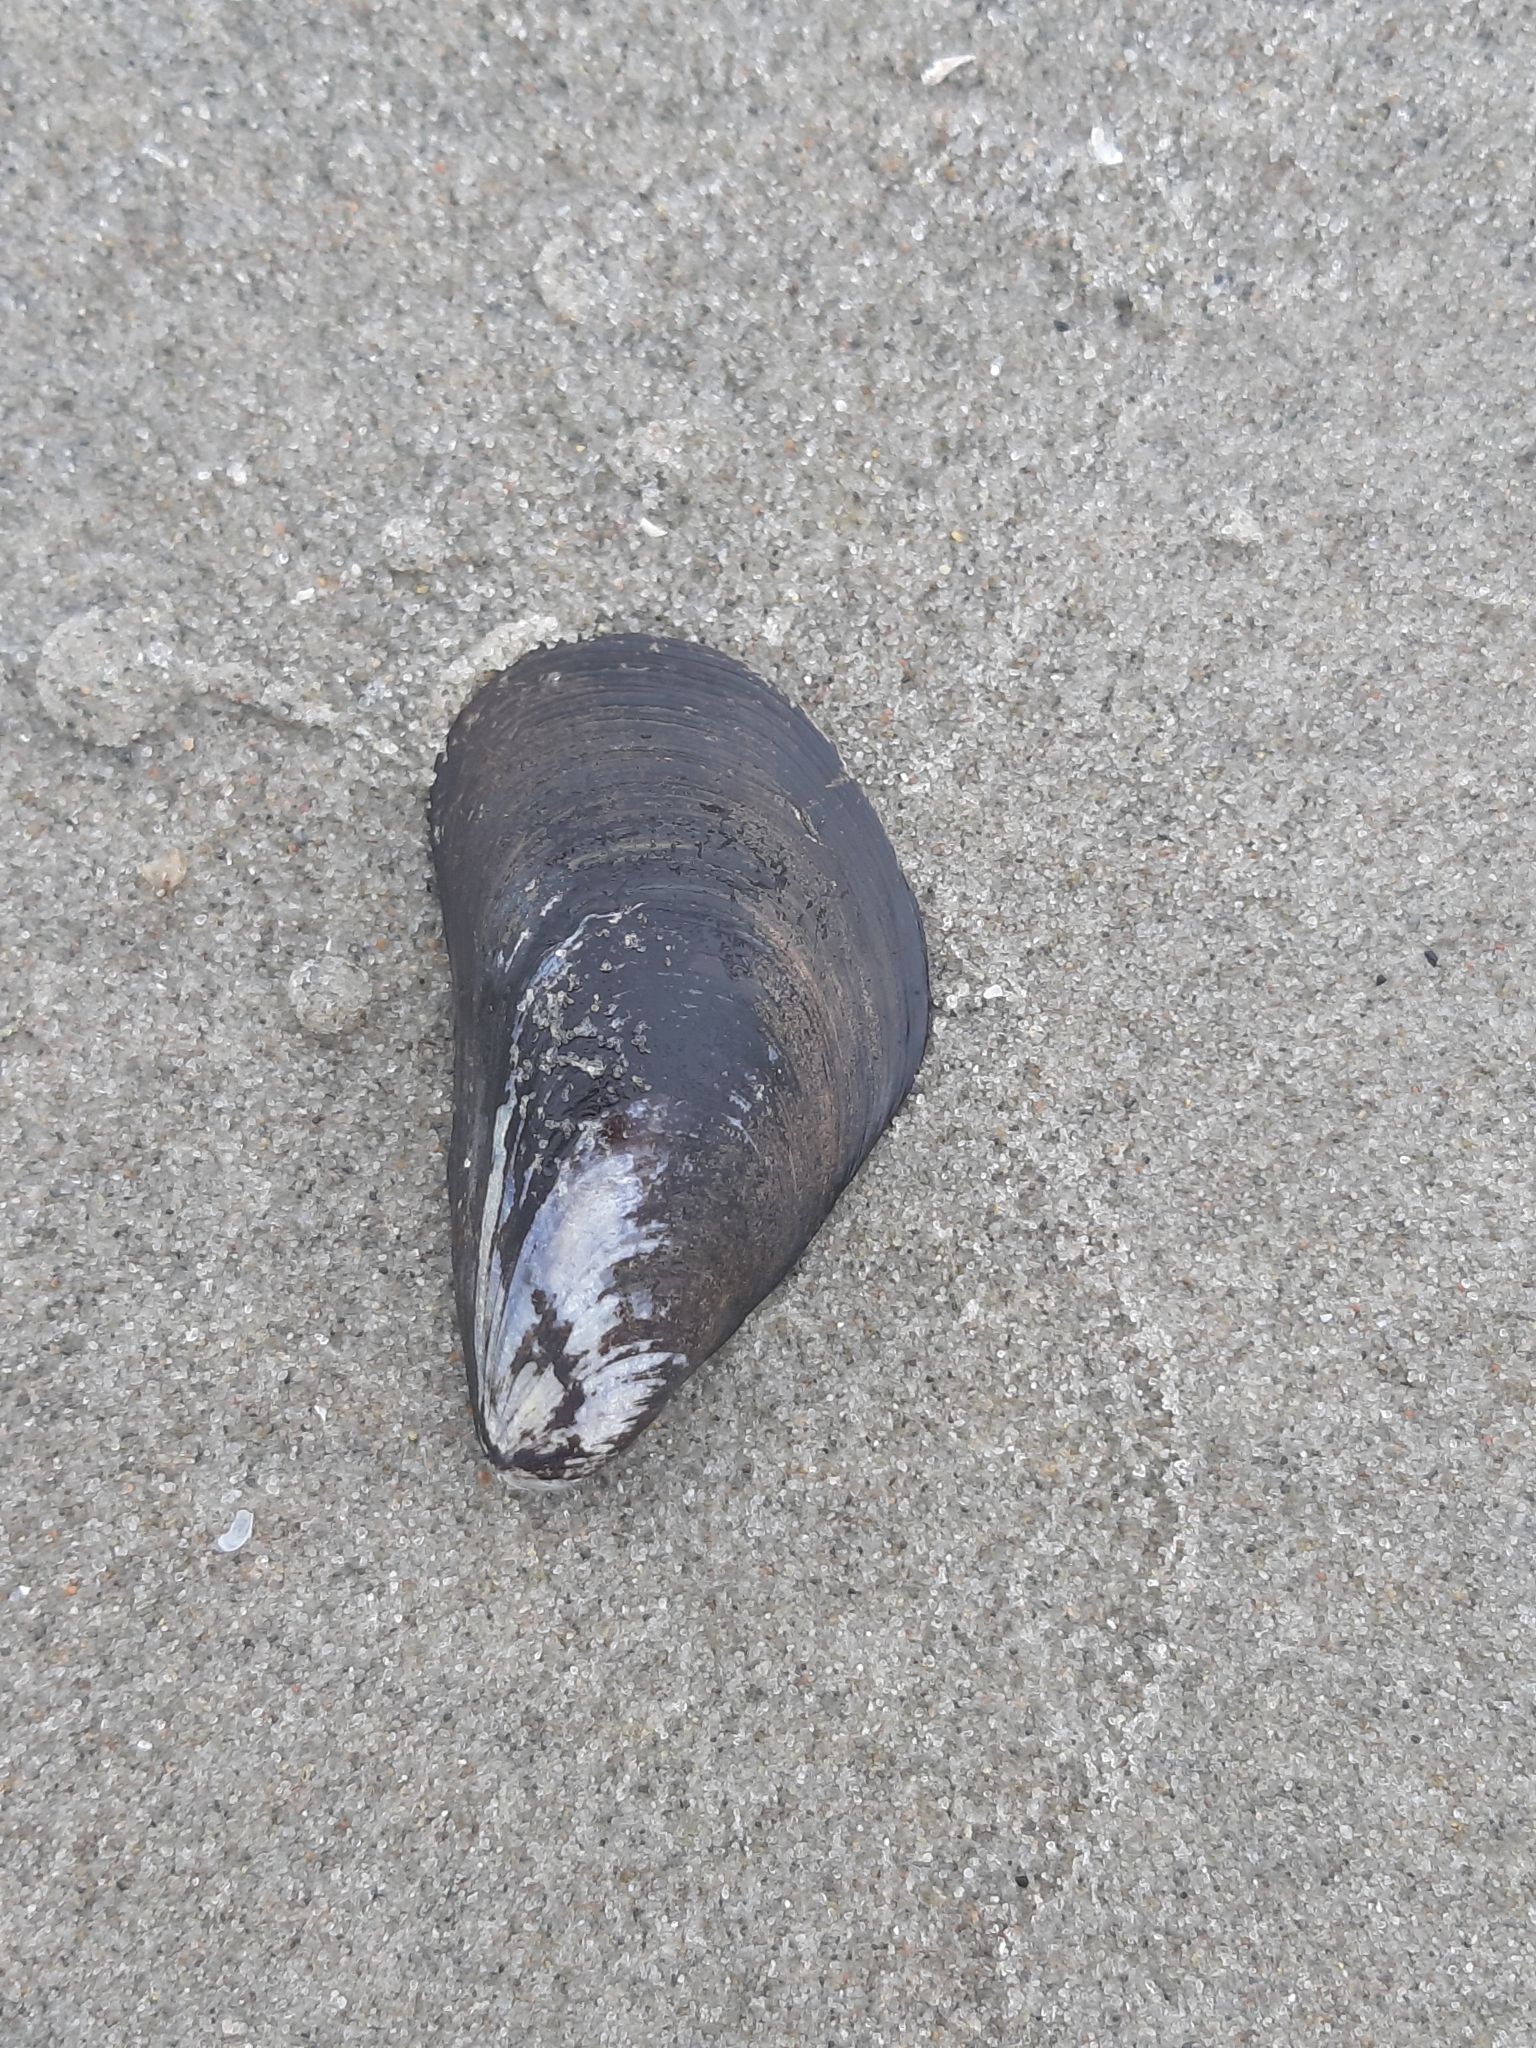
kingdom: Animalia
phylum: Mollusca
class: Bivalvia
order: Mytilida
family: Mytilidae
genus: Mytilus
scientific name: Mytilus edulis
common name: Blue mussel
